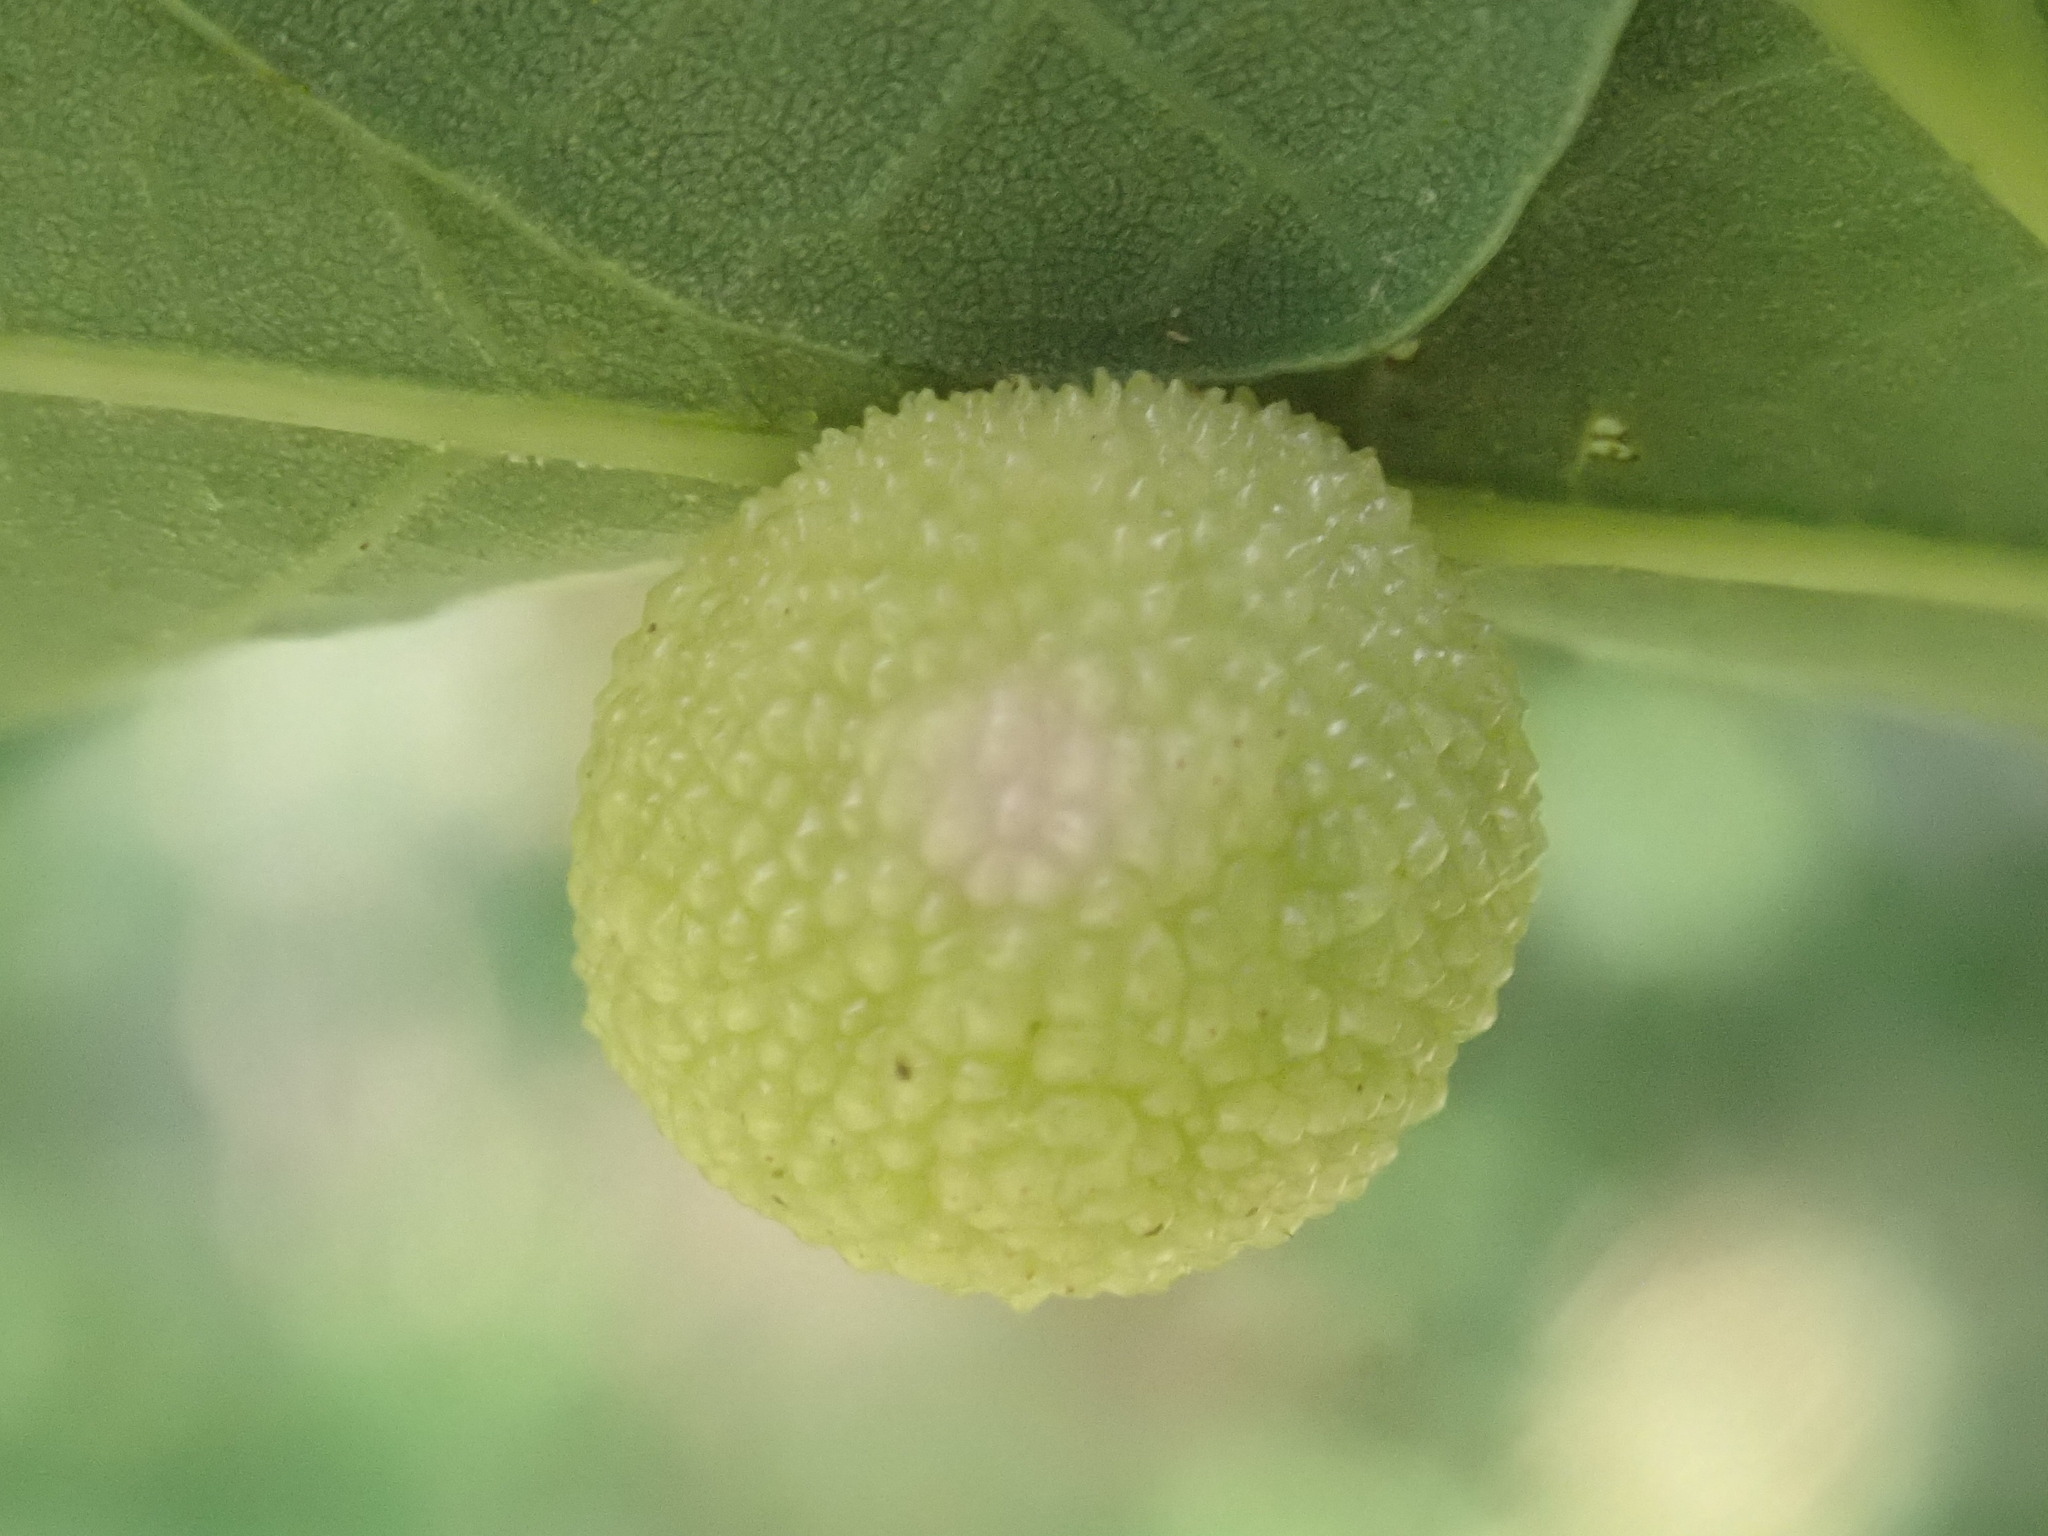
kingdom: Animalia
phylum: Arthropoda
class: Insecta
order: Hymenoptera
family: Cynipidae
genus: Acraspis
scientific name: Acraspis
